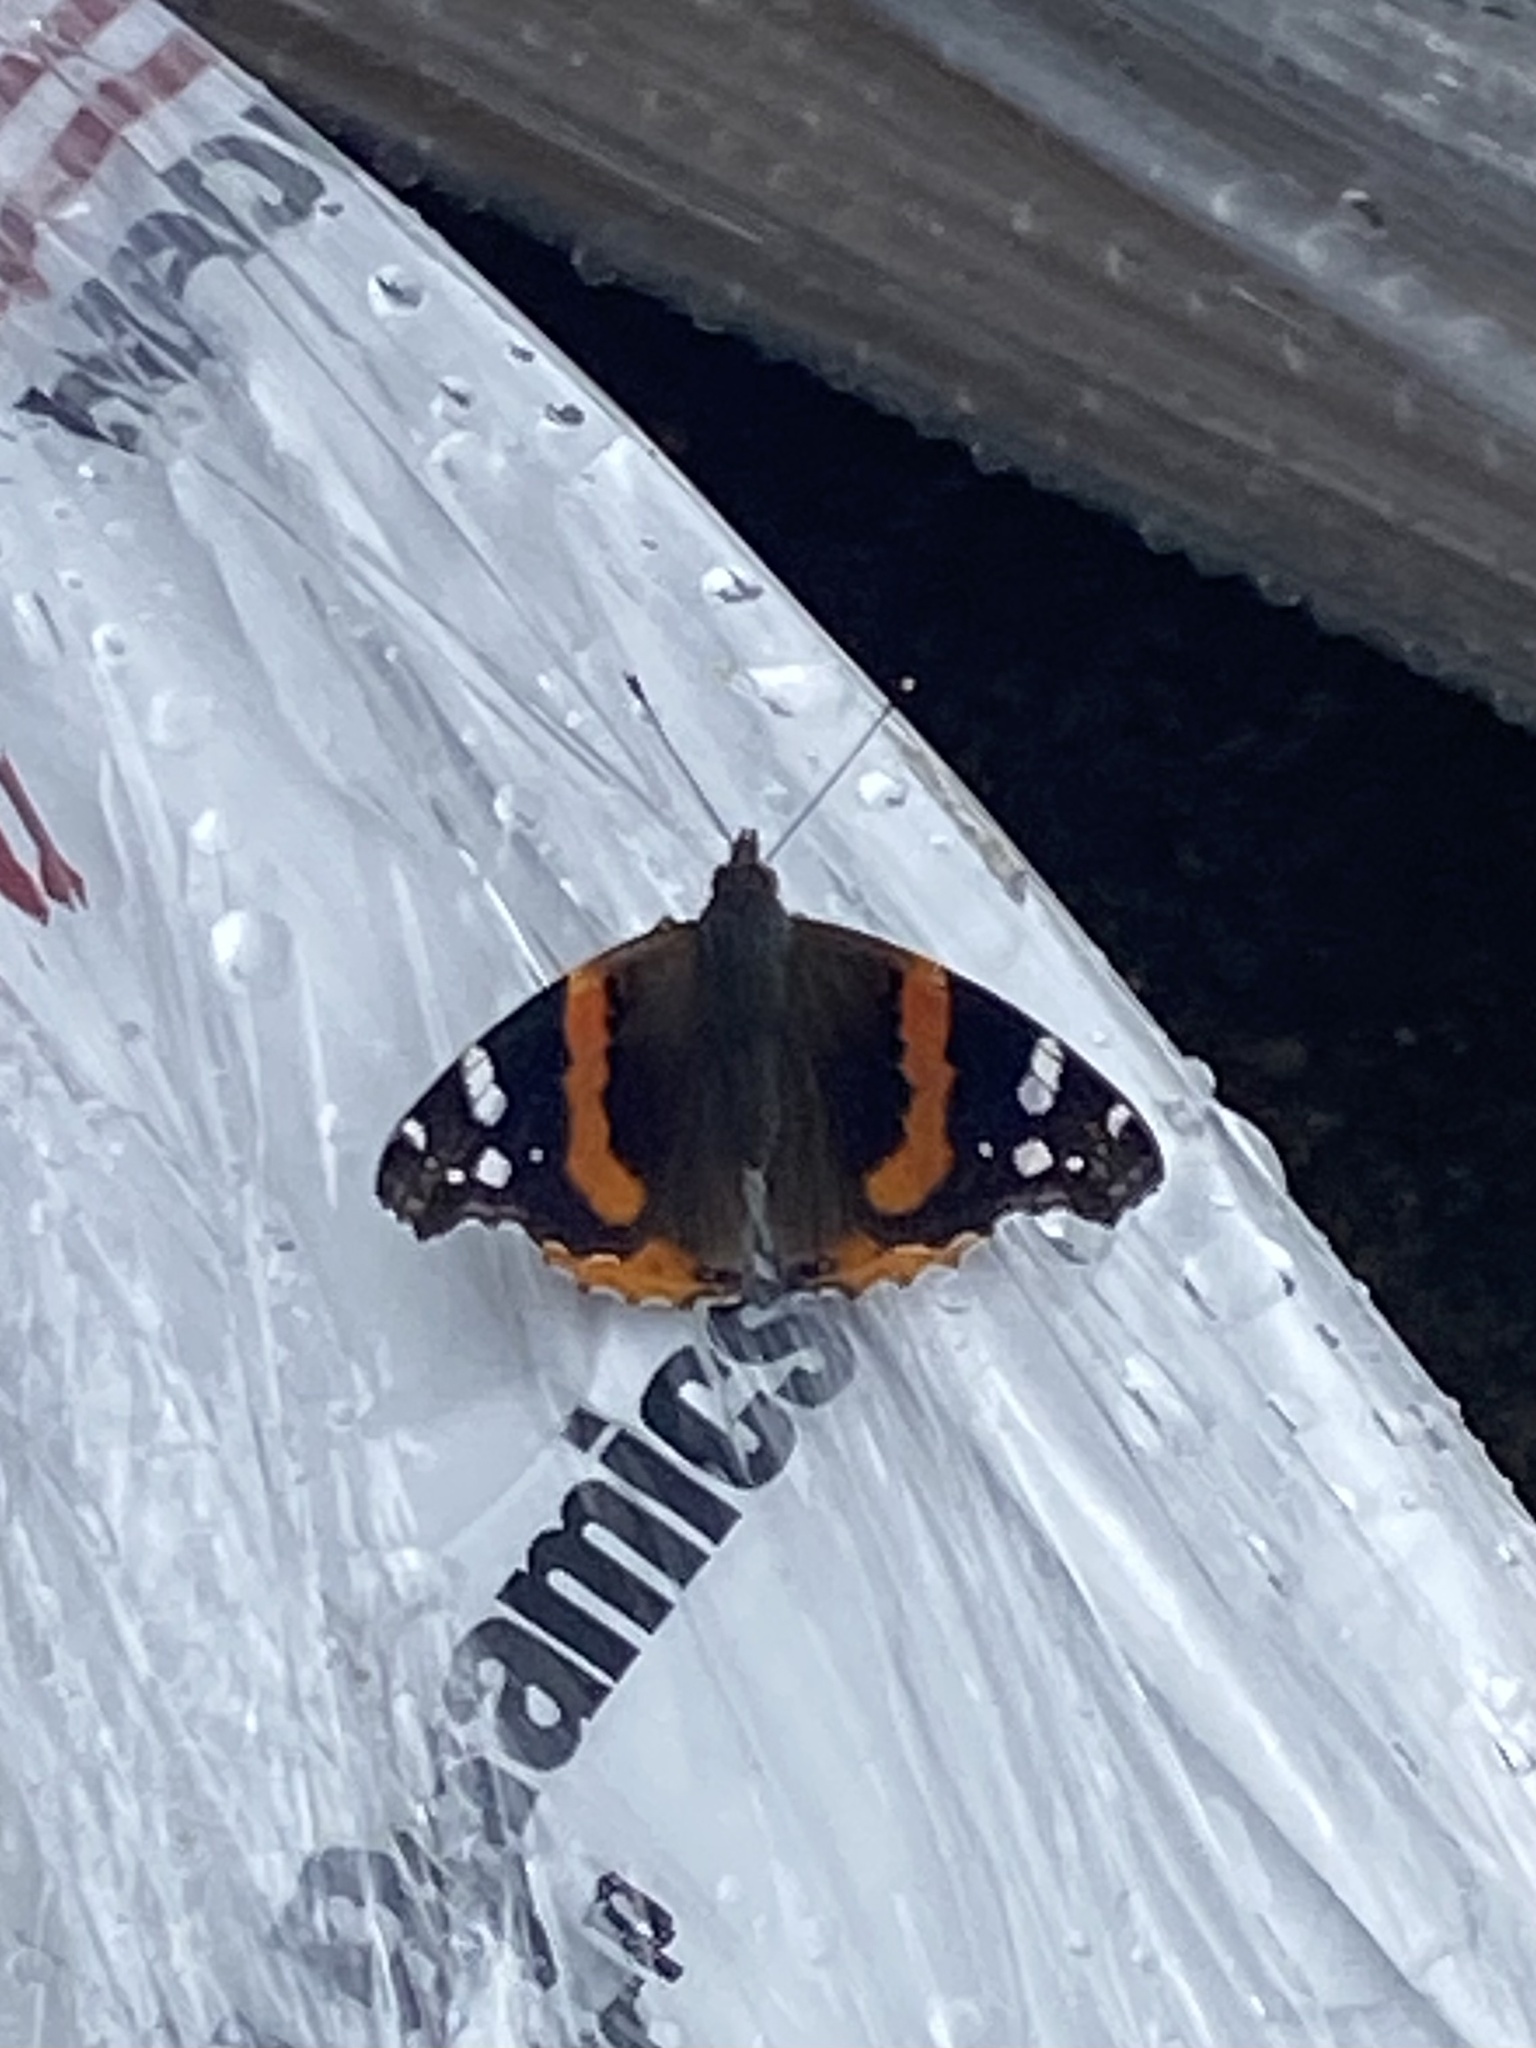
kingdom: Animalia
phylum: Arthropoda
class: Insecta
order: Lepidoptera
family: Nymphalidae
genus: Vanessa
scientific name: Vanessa atalanta
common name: Red admiral
